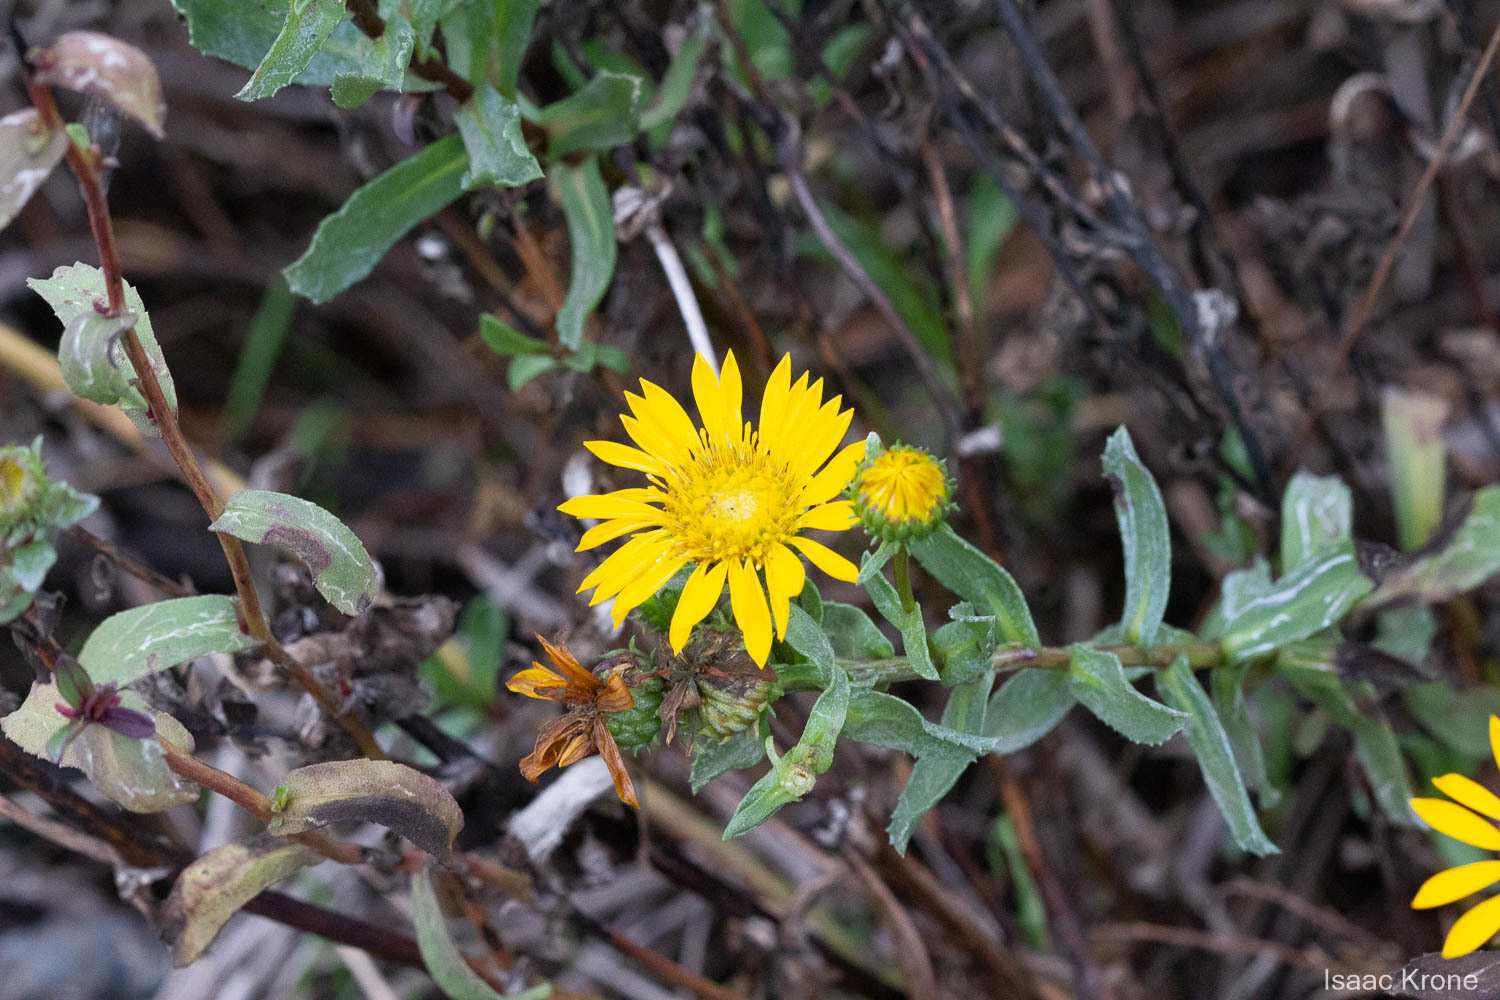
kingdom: Plantae
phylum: Tracheophyta
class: Magnoliopsida
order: Asterales
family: Asteraceae
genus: Grindelia
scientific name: Grindelia hirsutula
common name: Hairy gumweed
